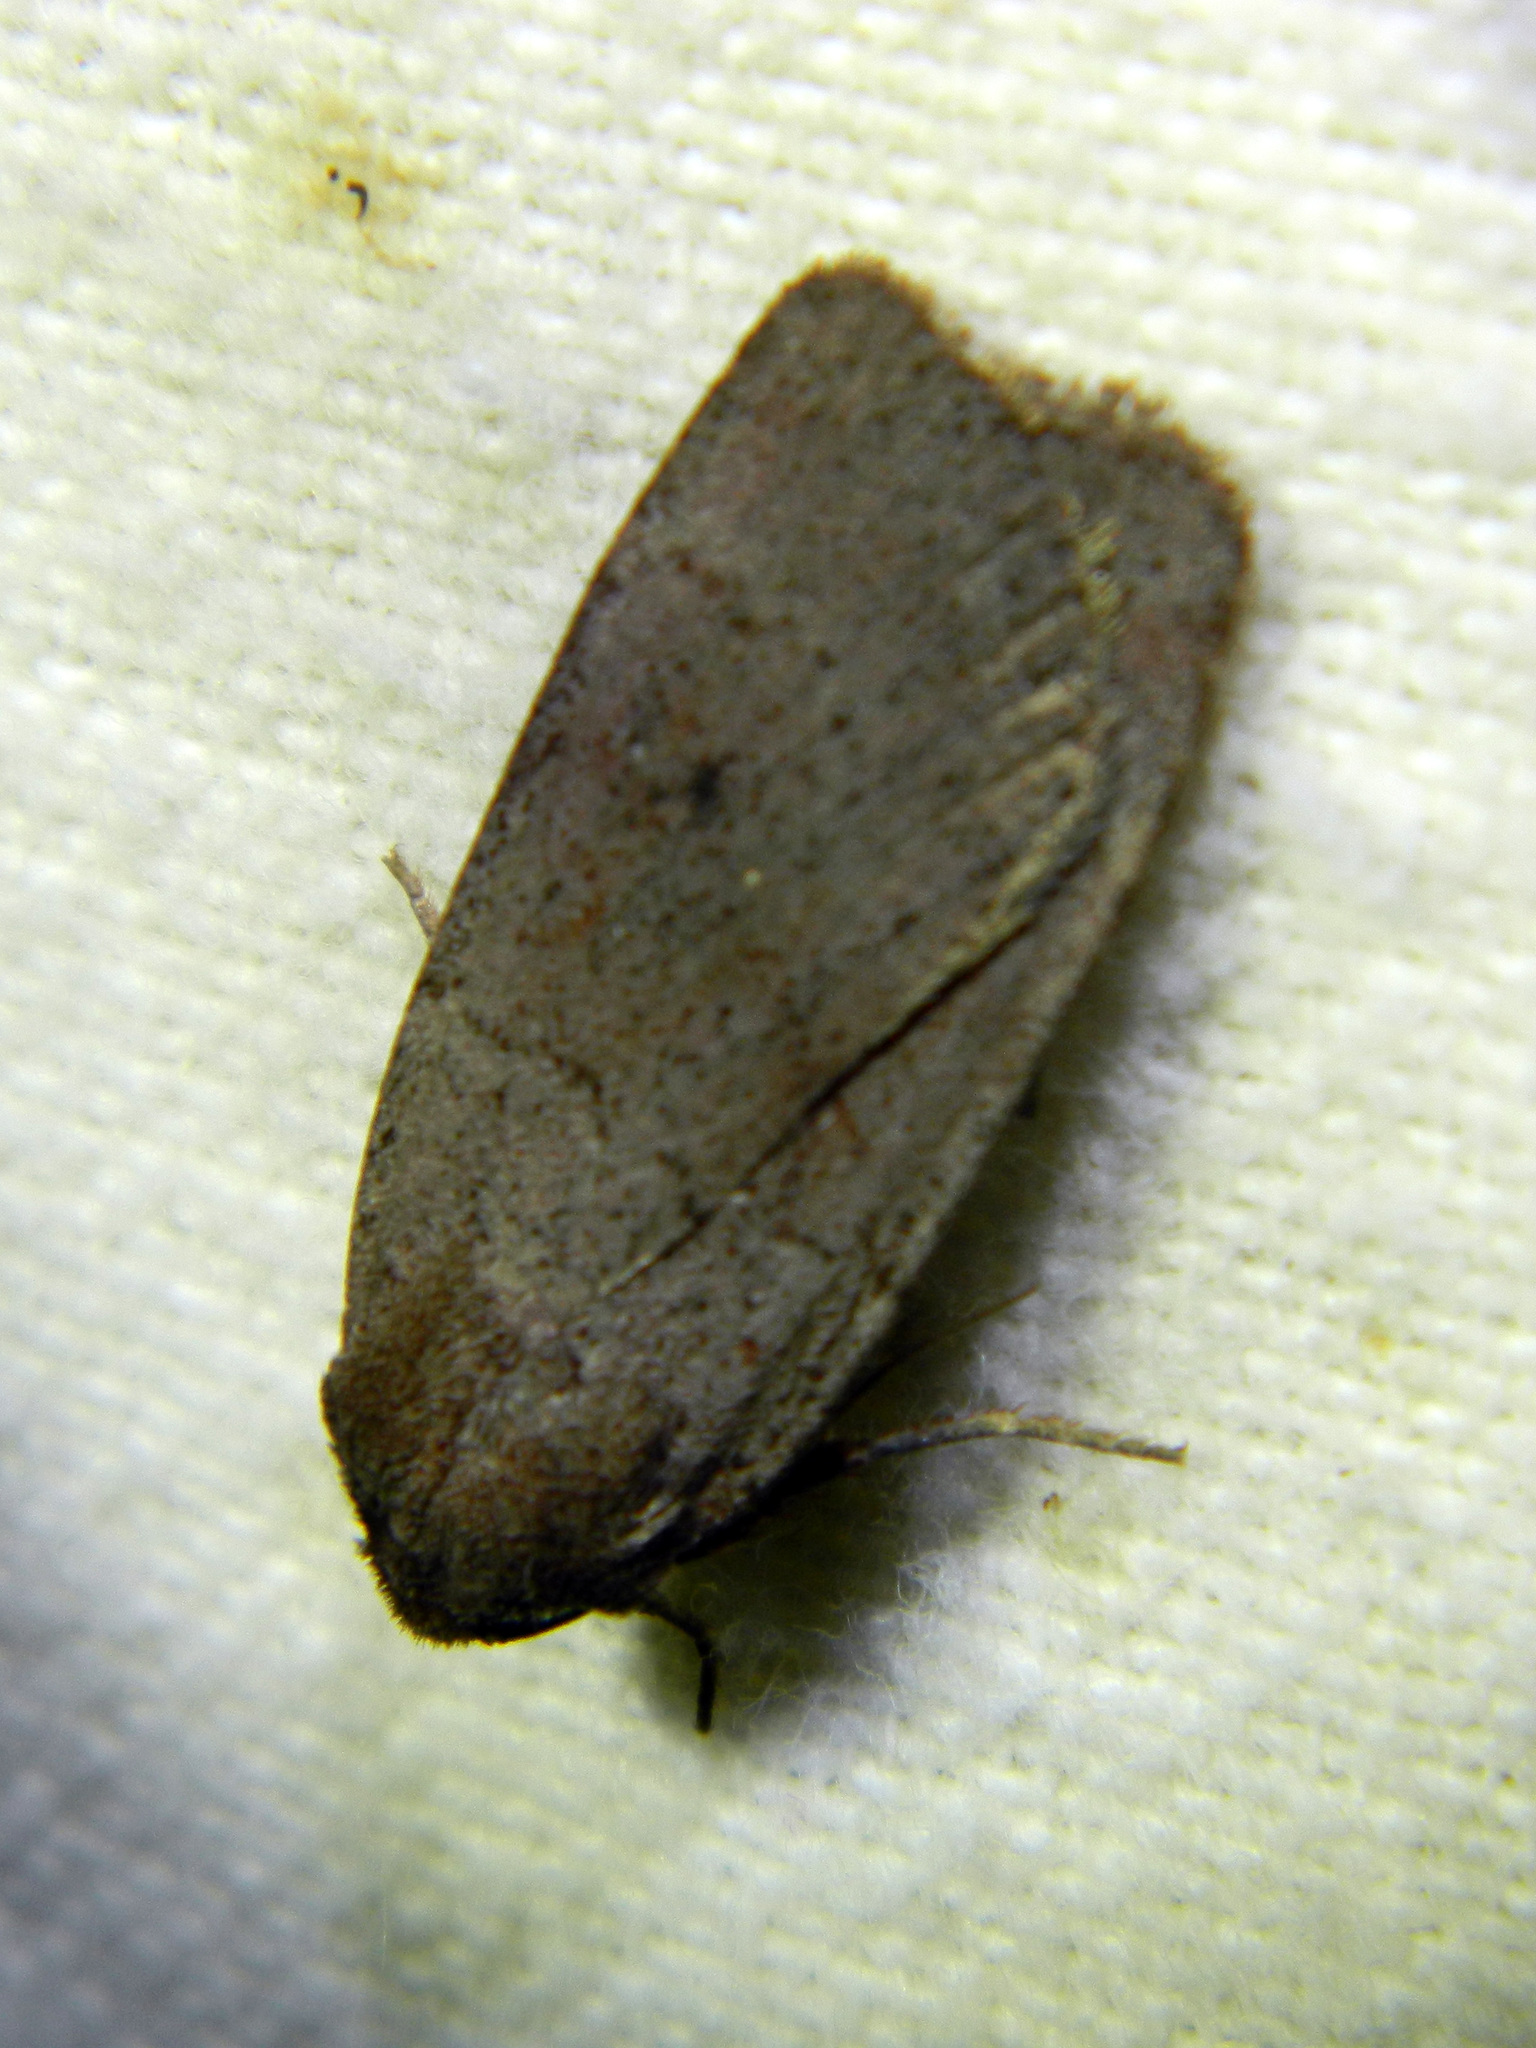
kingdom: Animalia
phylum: Arthropoda
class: Insecta
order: Lepidoptera
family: Noctuidae
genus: Graphiphora
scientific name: Graphiphora augur
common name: Double dart
